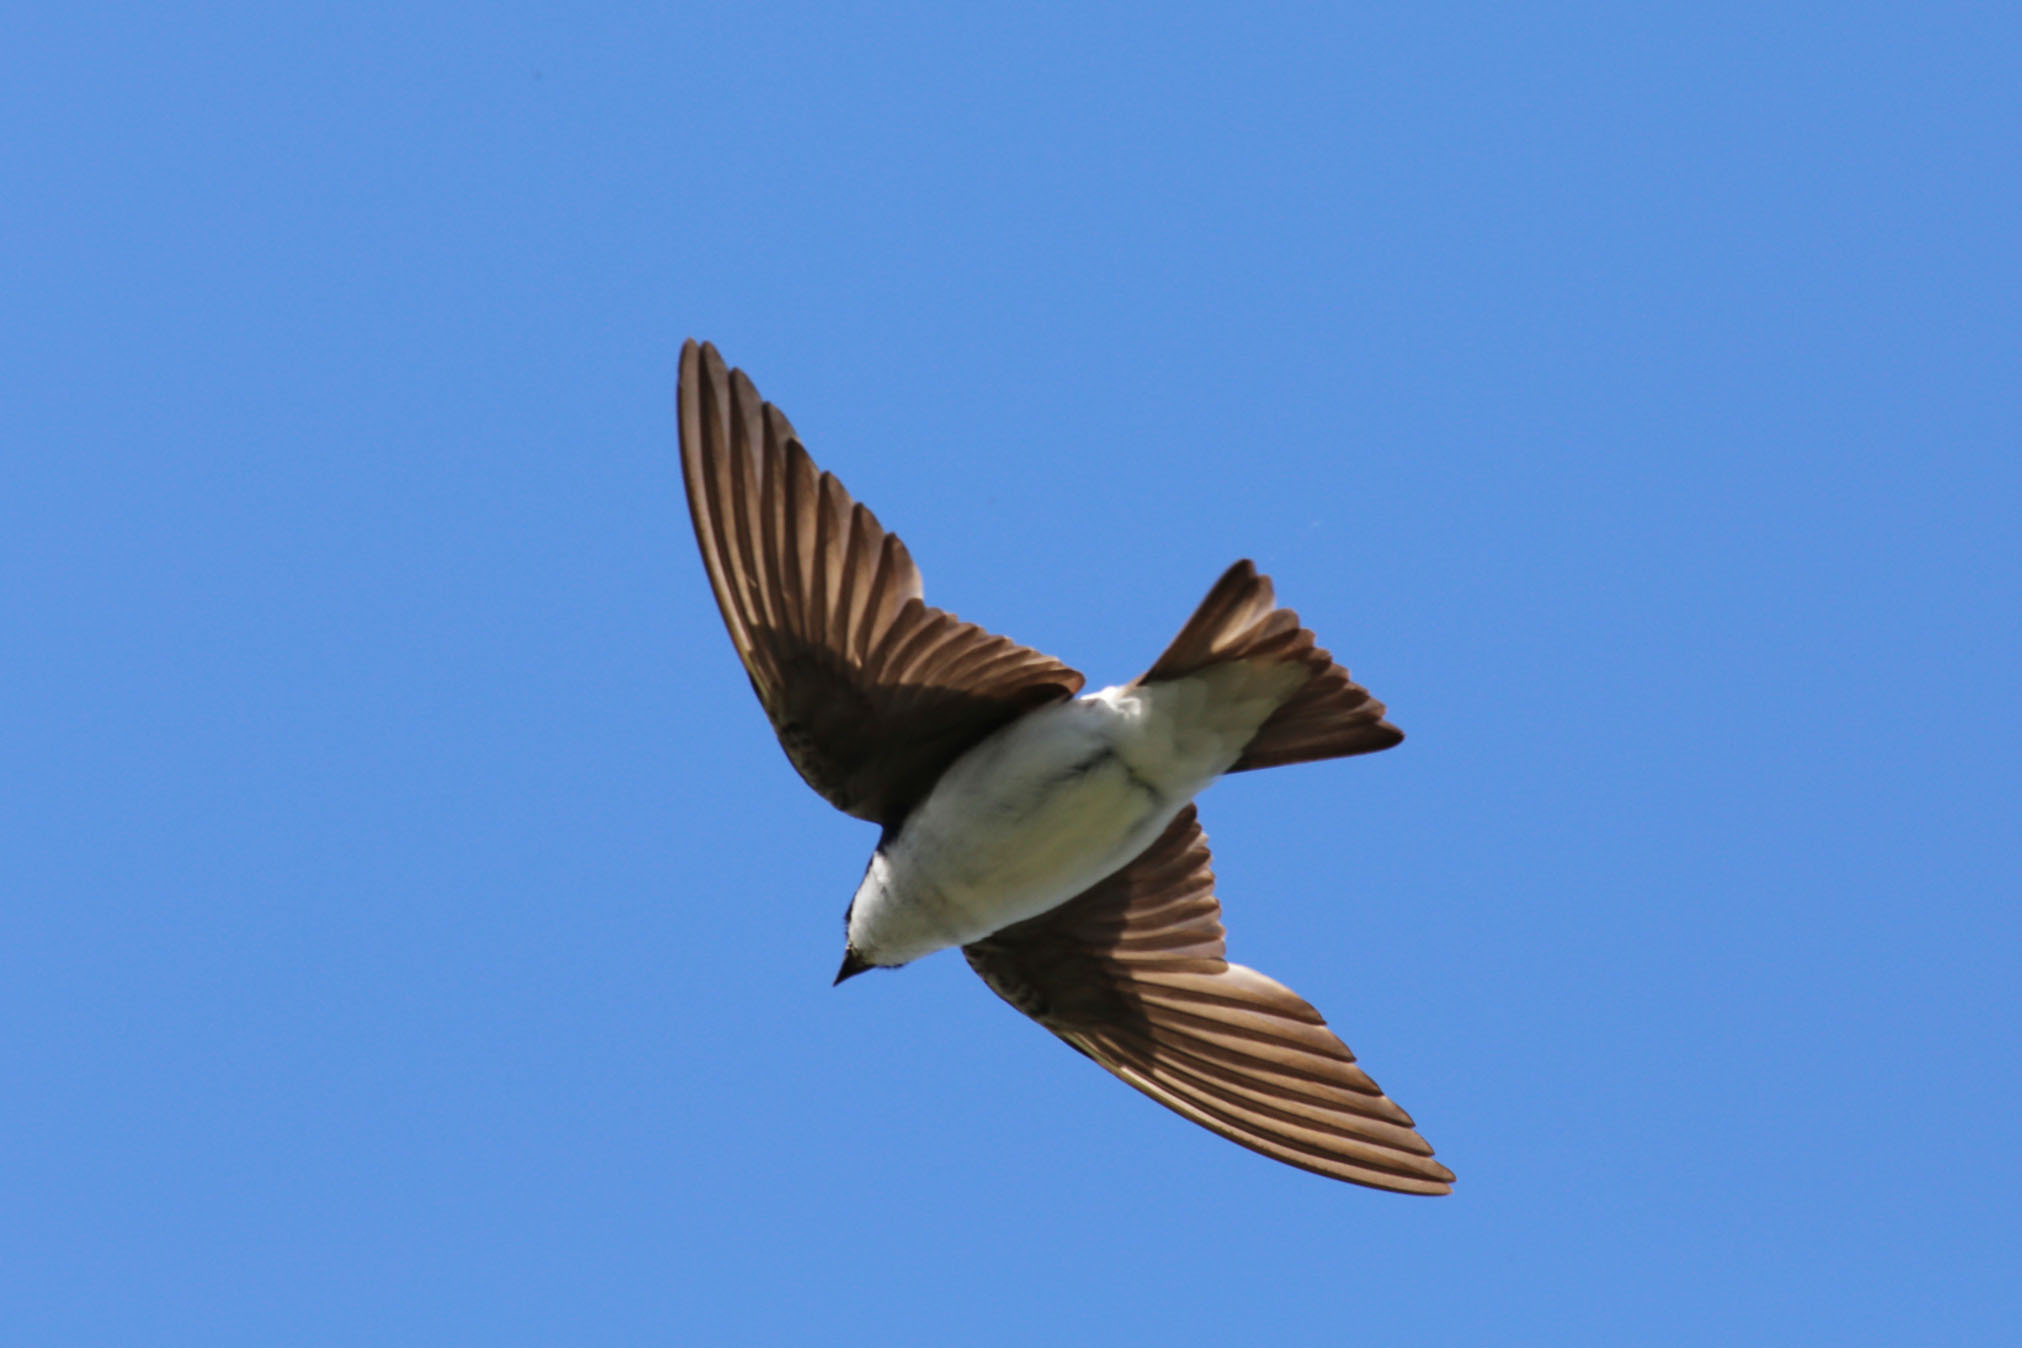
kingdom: Animalia
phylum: Chordata
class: Aves
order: Passeriformes
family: Hirundinidae
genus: Tachycineta
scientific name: Tachycineta bicolor
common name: Tree swallow
